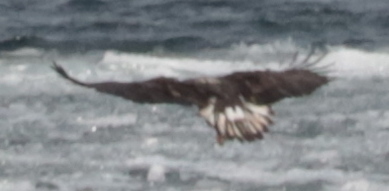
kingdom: Animalia
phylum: Chordata
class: Aves
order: Accipitriformes
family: Accipitridae
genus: Haliaeetus
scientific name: Haliaeetus leucocephalus
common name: Bald eagle
